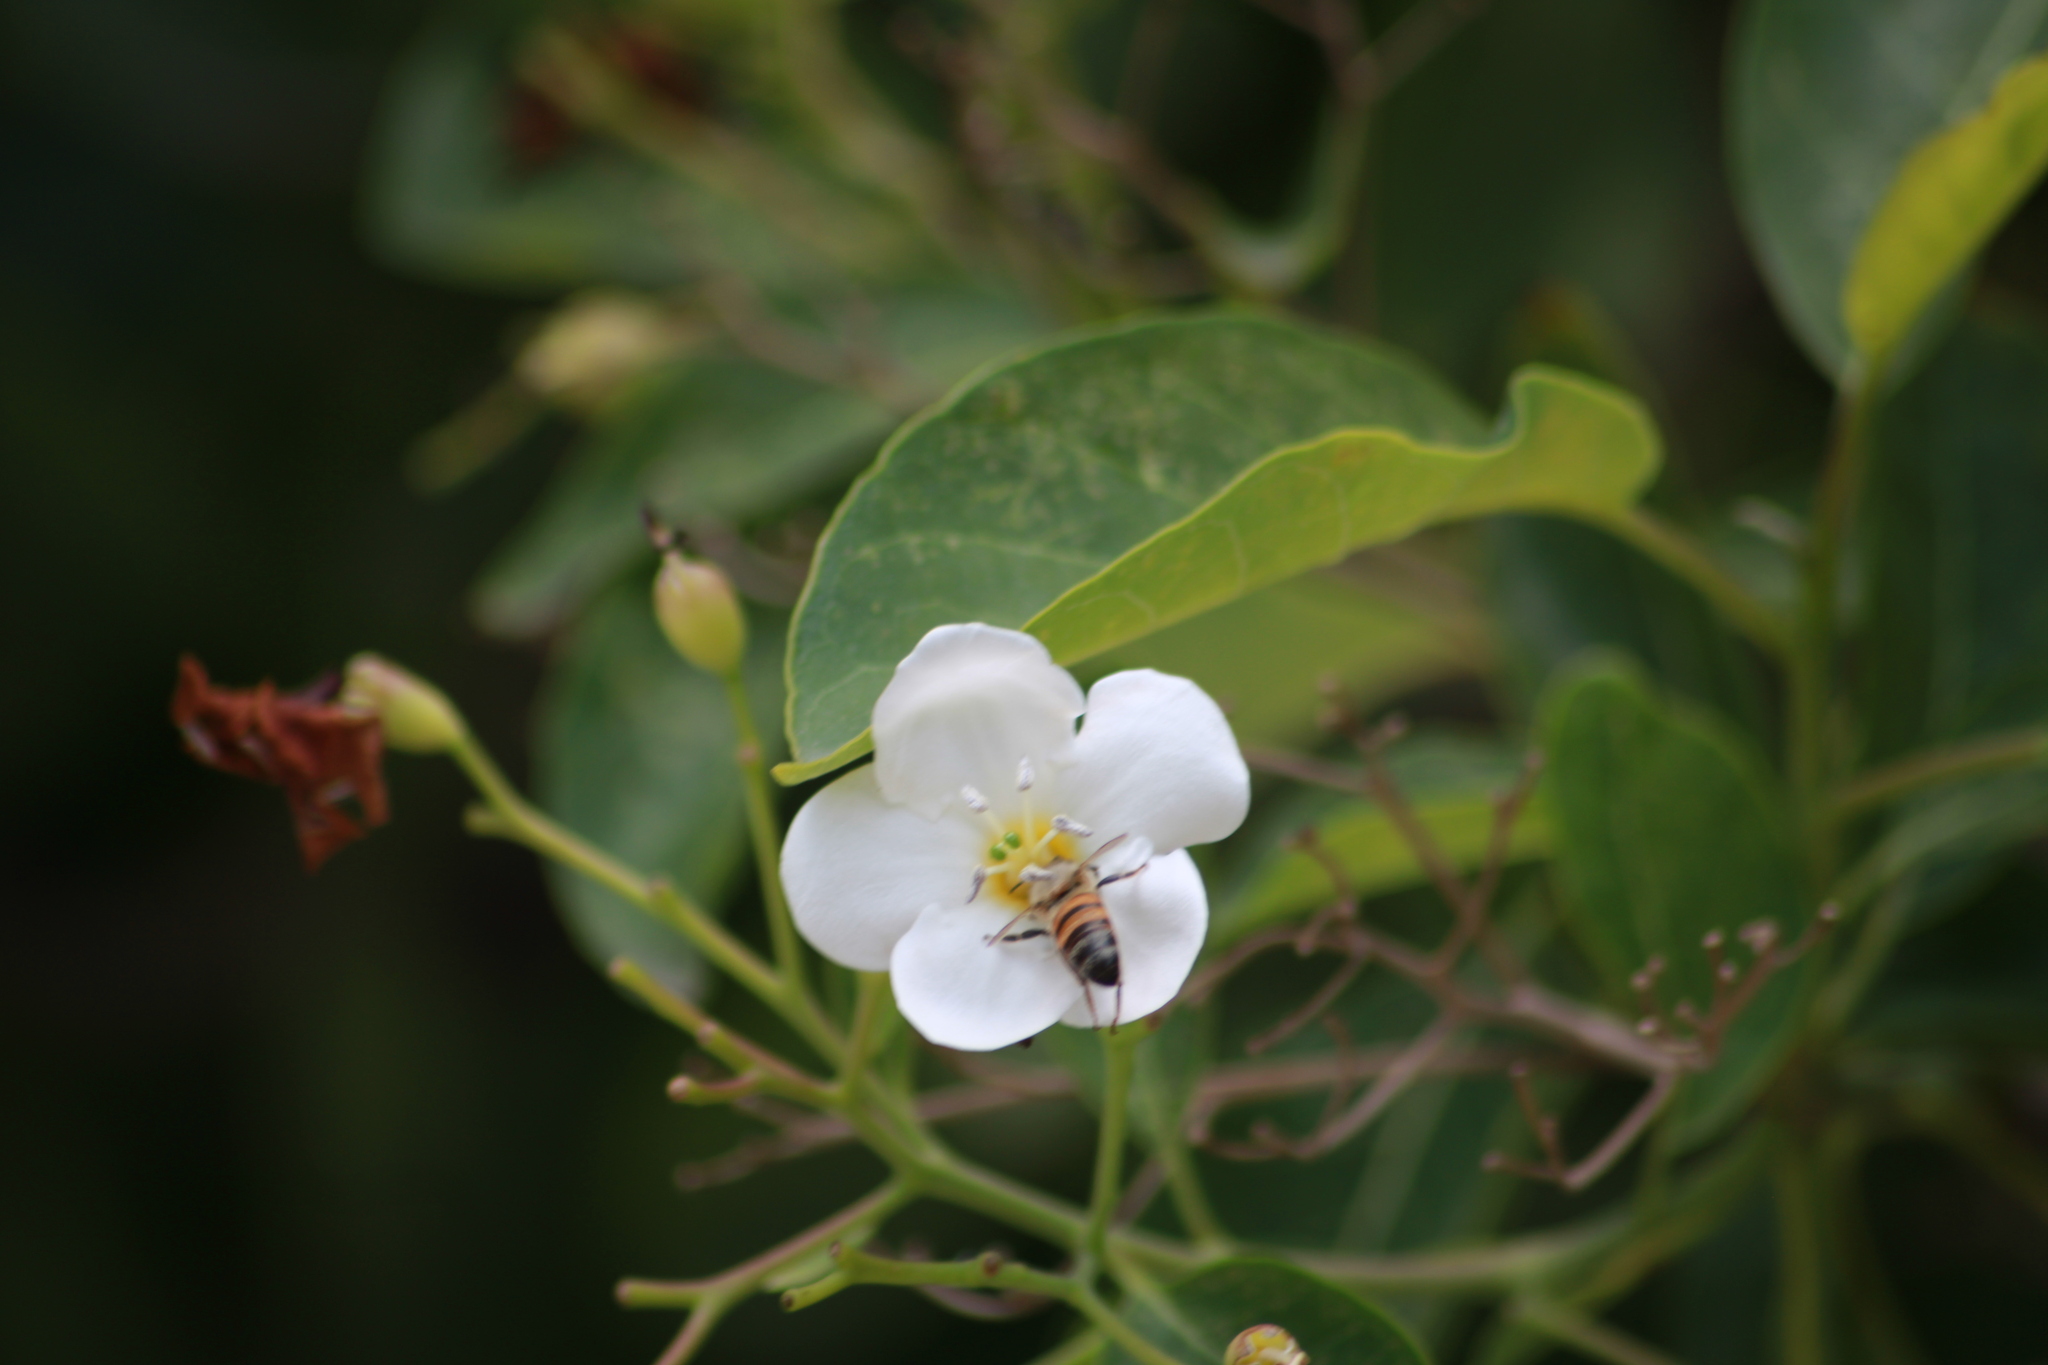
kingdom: Animalia
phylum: Arthropoda
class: Insecta
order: Hymenoptera
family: Apidae
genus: Apis
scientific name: Apis mellifera
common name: Honey bee
